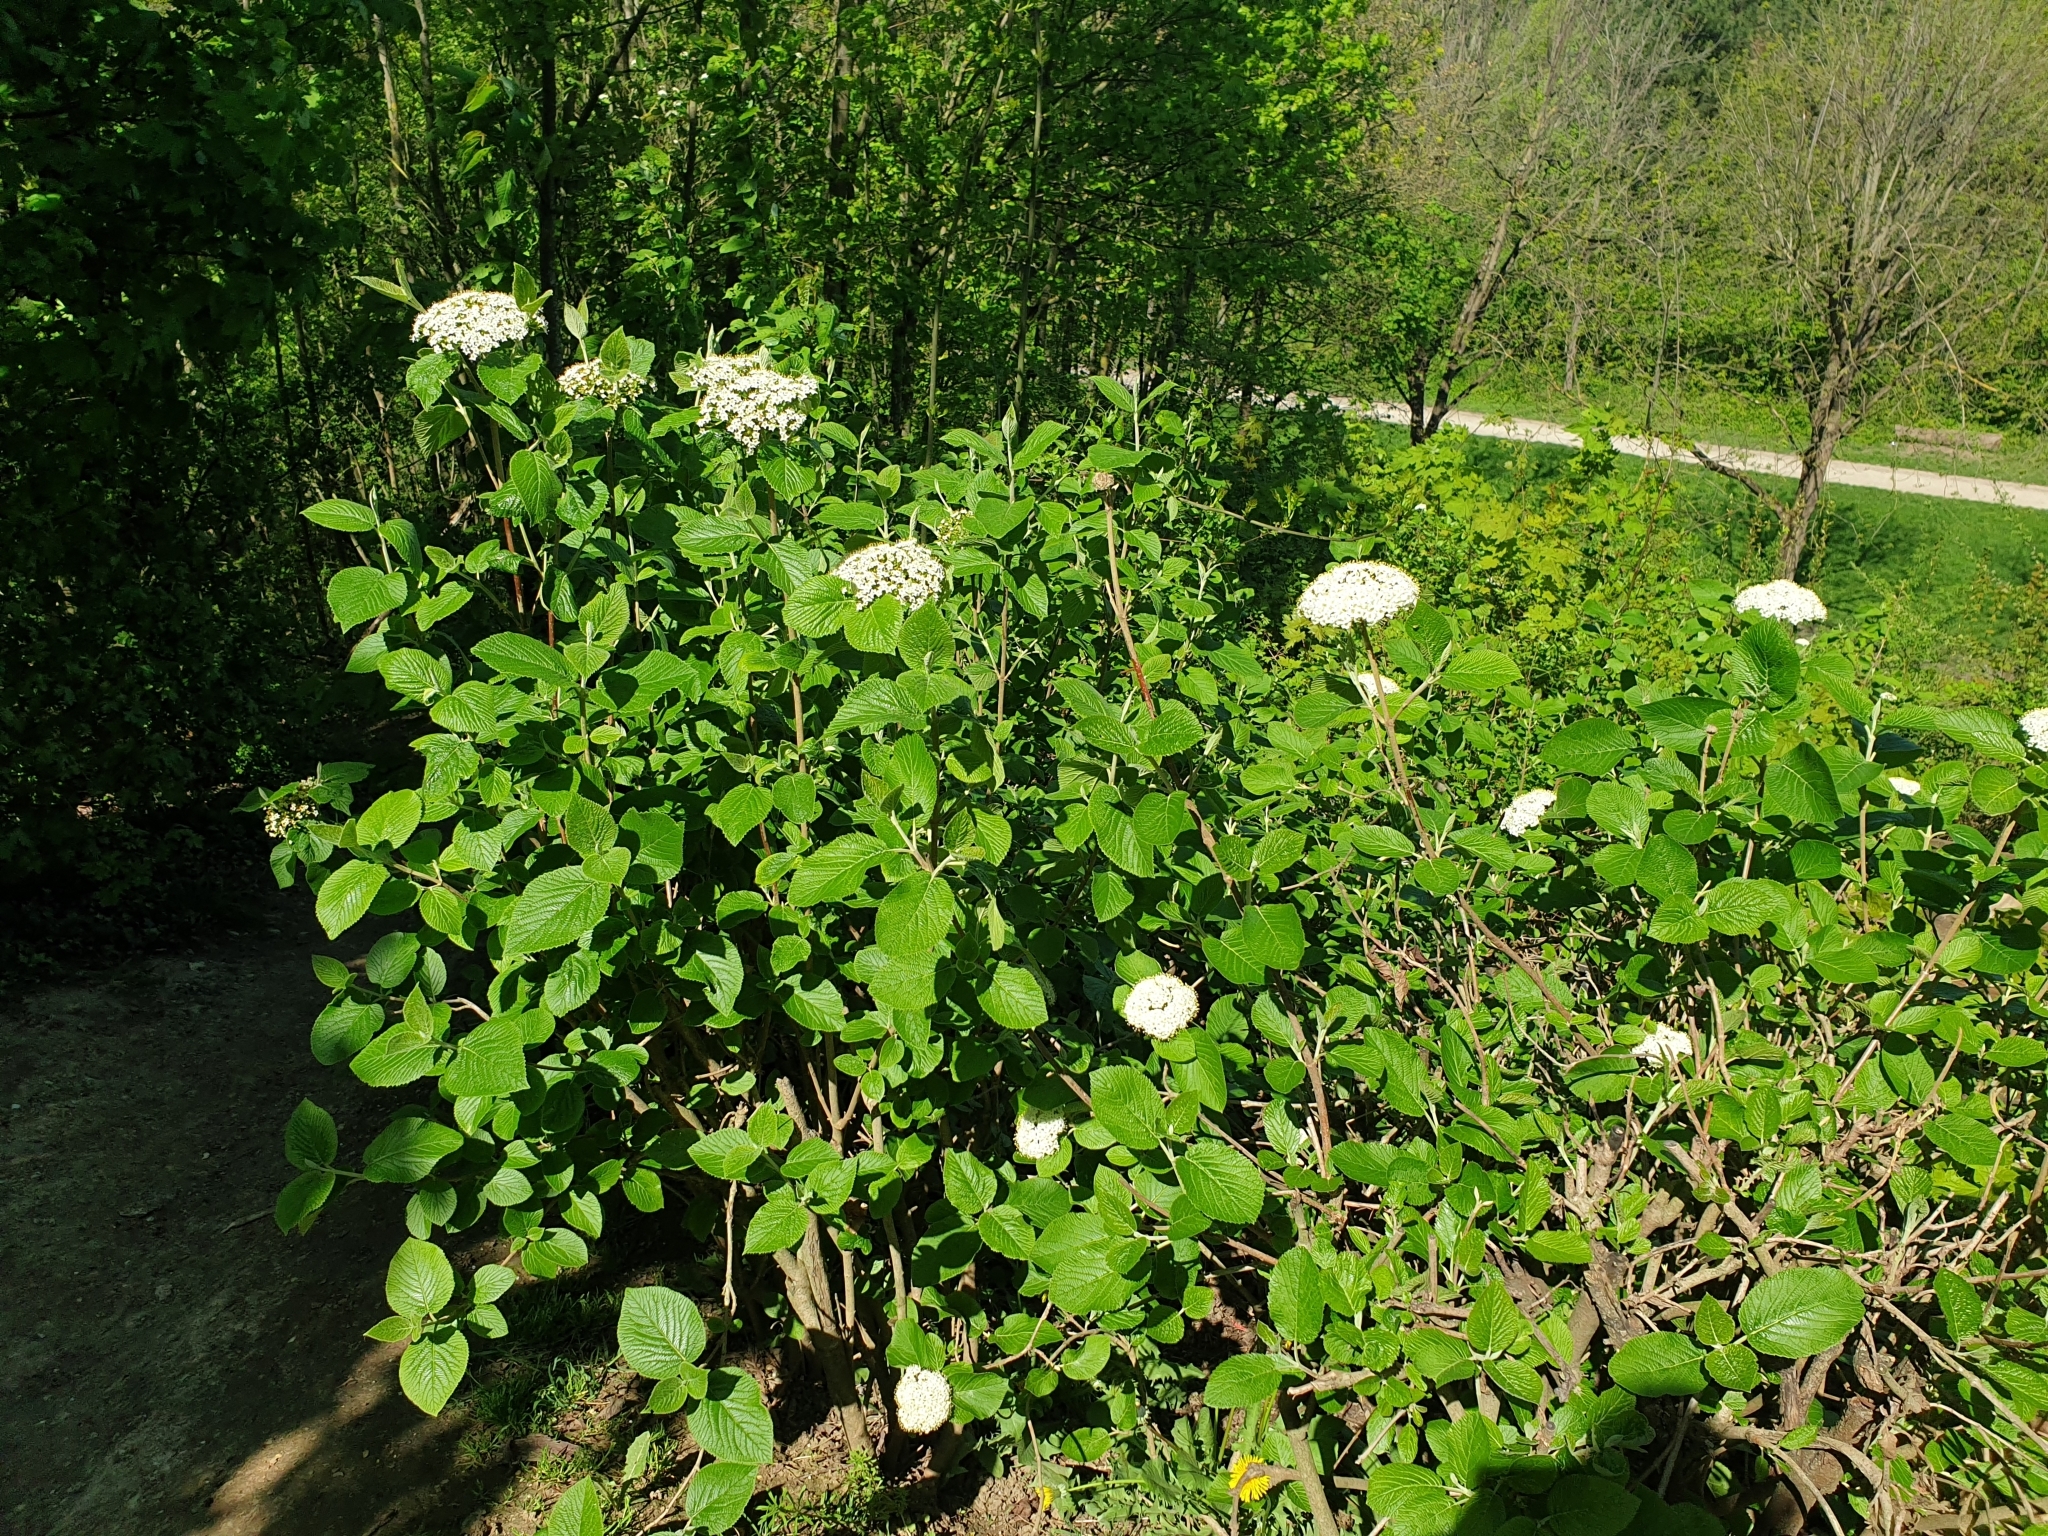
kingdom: Plantae
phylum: Tracheophyta
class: Magnoliopsida
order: Dipsacales
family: Viburnaceae
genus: Viburnum
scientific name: Viburnum lantana
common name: Wayfaring tree
